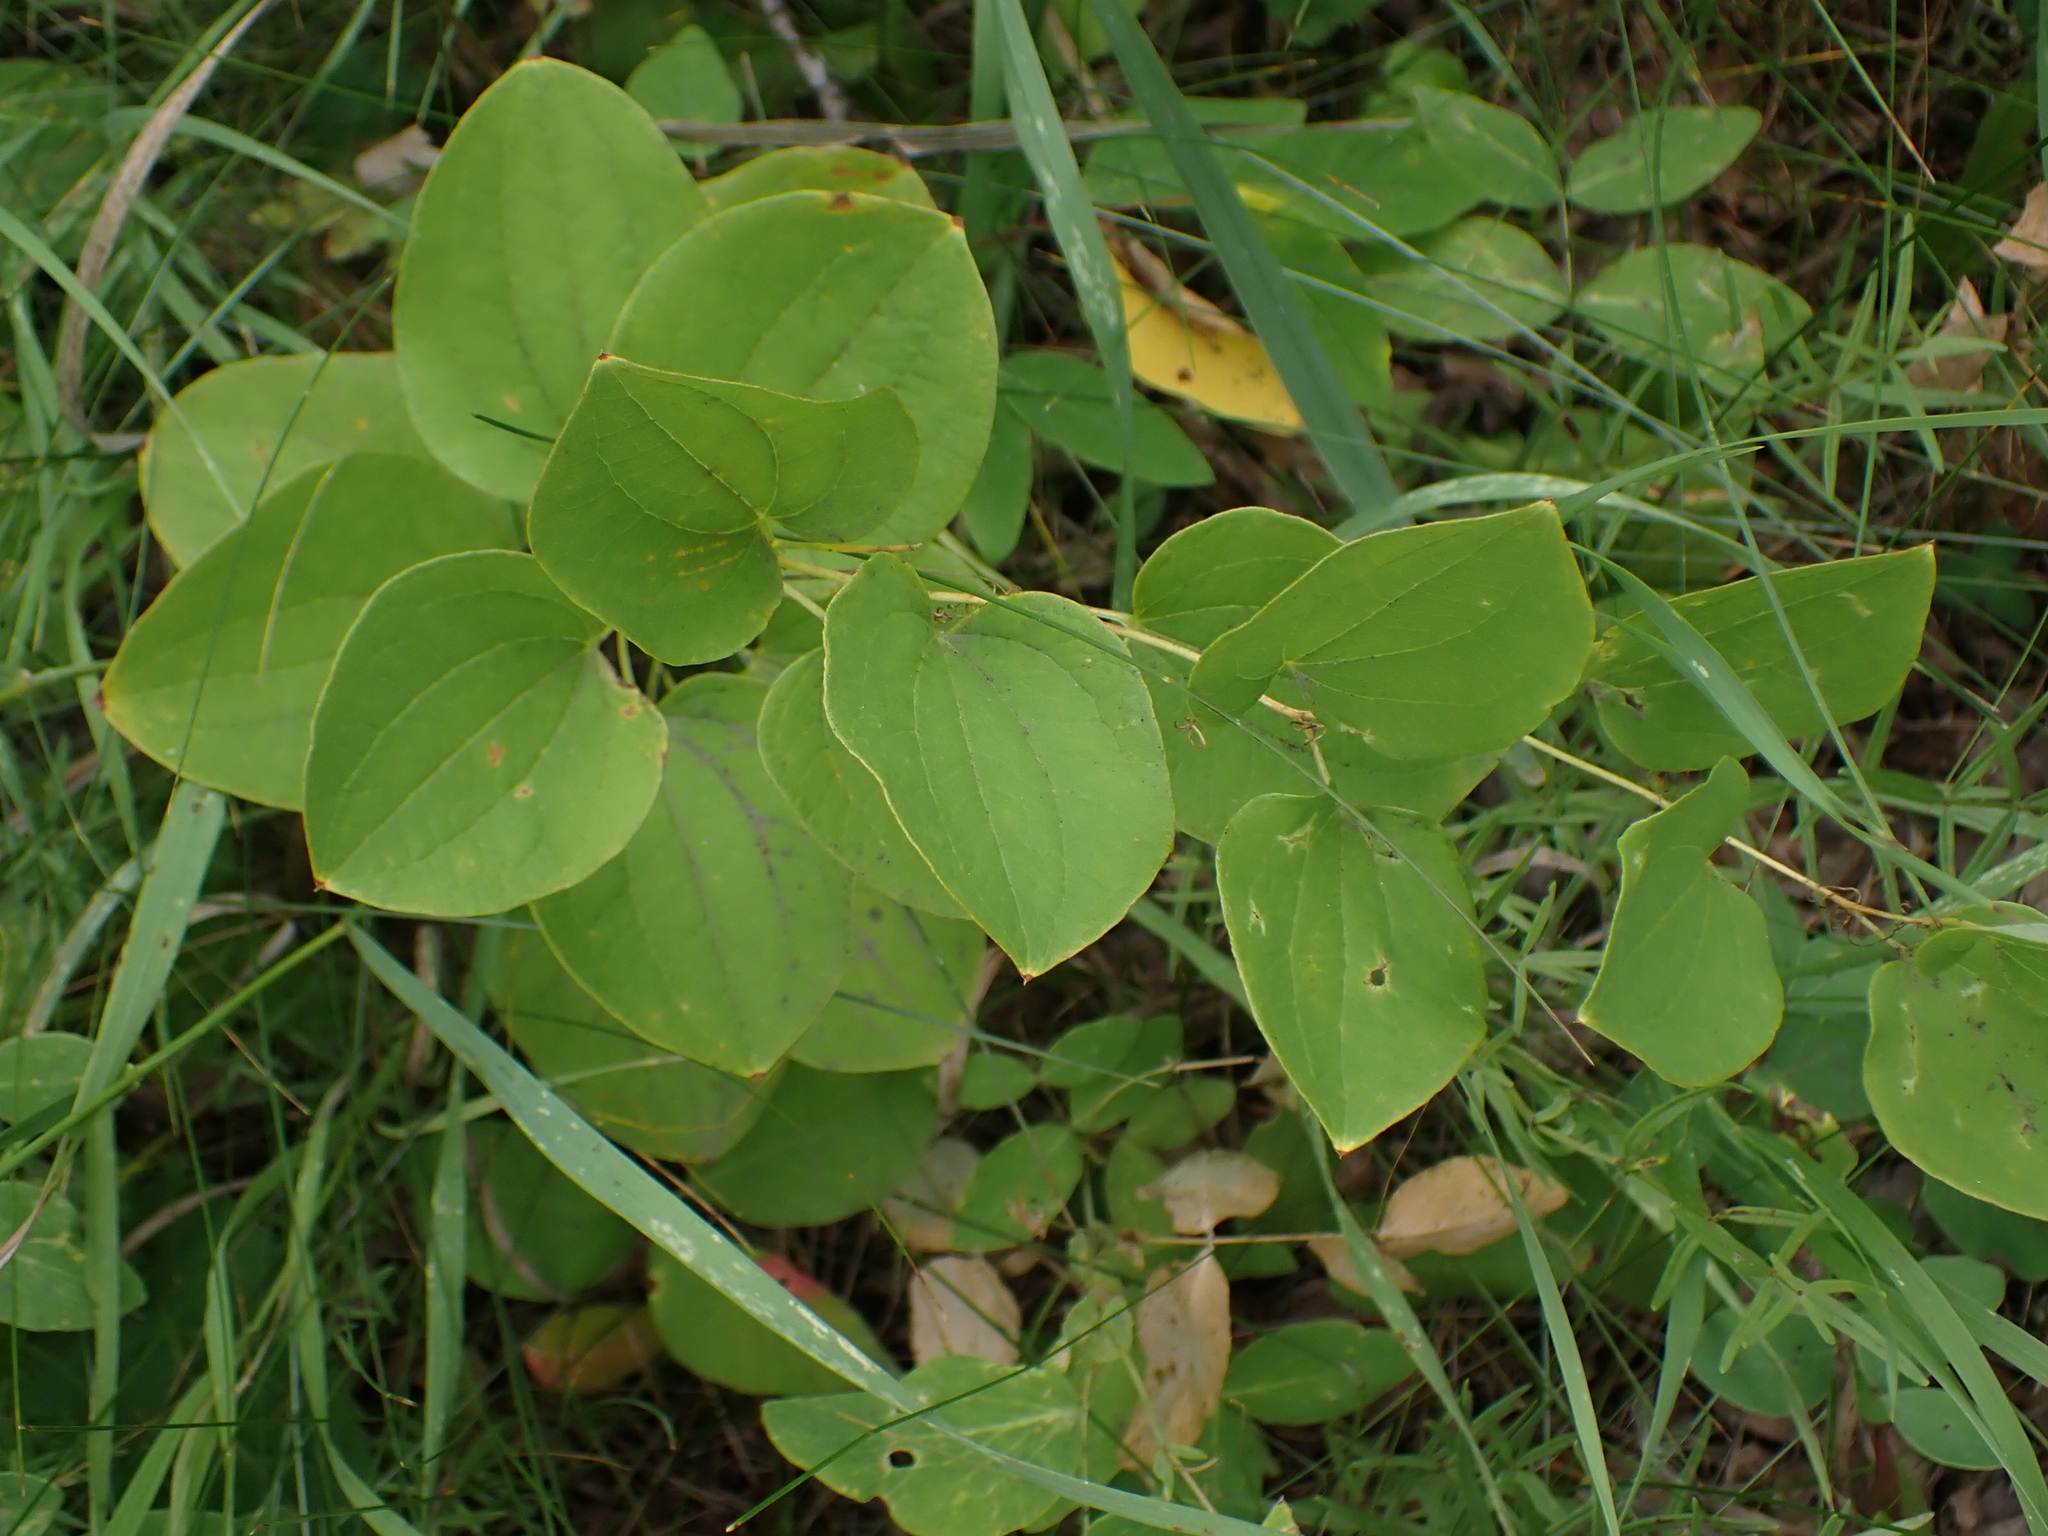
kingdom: Plantae
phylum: Tracheophyta
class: Liliopsida
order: Liliales
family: Smilacaceae
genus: Smilax
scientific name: Smilax lasioneura
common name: Blue ridge carrionflower
